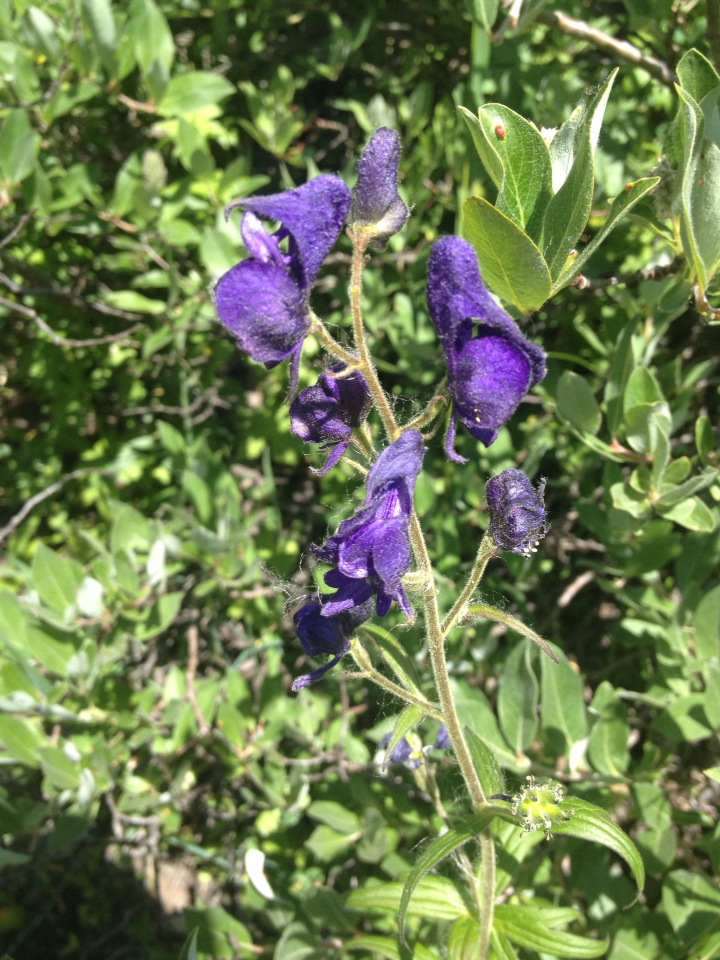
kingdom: Plantae
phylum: Tracheophyta
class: Magnoliopsida
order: Ranunculales
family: Ranunculaceae
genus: Aconitum
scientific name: Aconitum columbianum
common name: Columbia aconite
